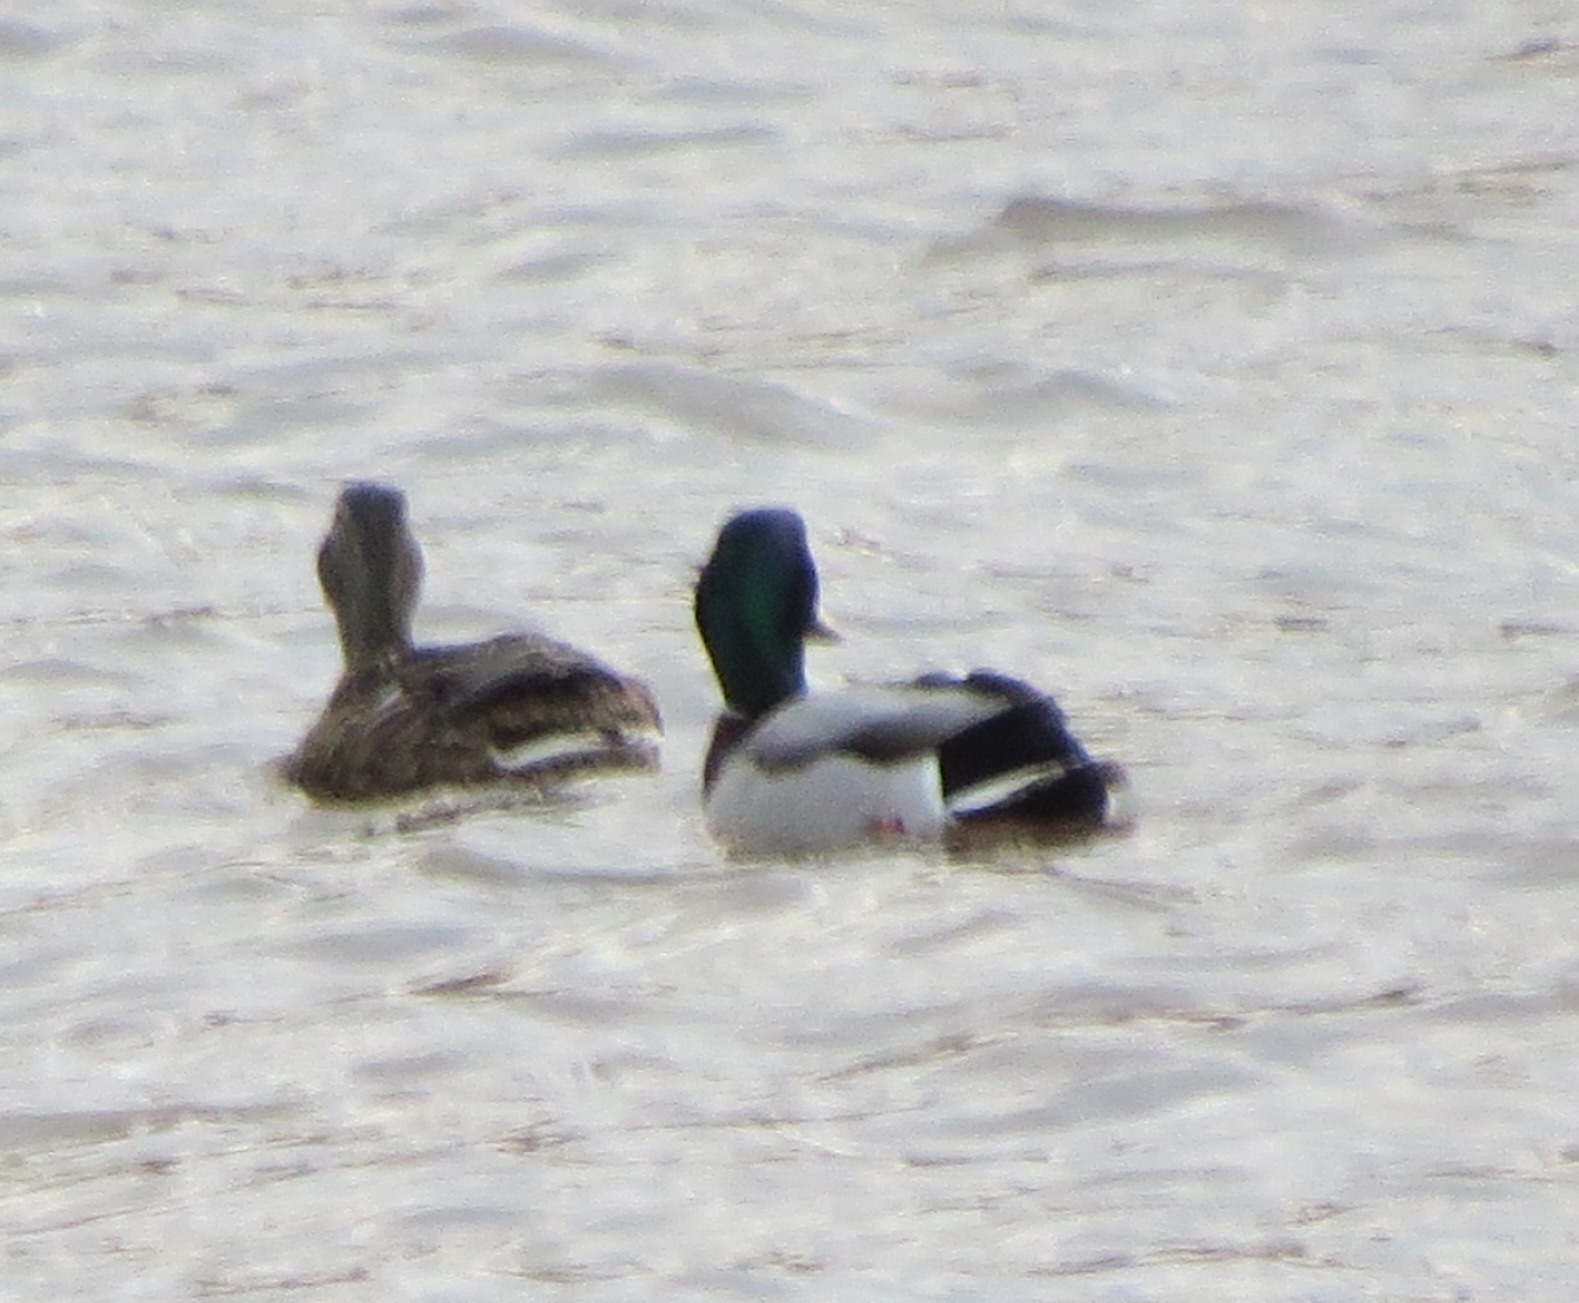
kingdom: Animalia
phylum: Chordata
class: Aves
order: Anseriformes
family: Anatidae
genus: Anas
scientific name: Anas platyrhynchos
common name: Mallard
